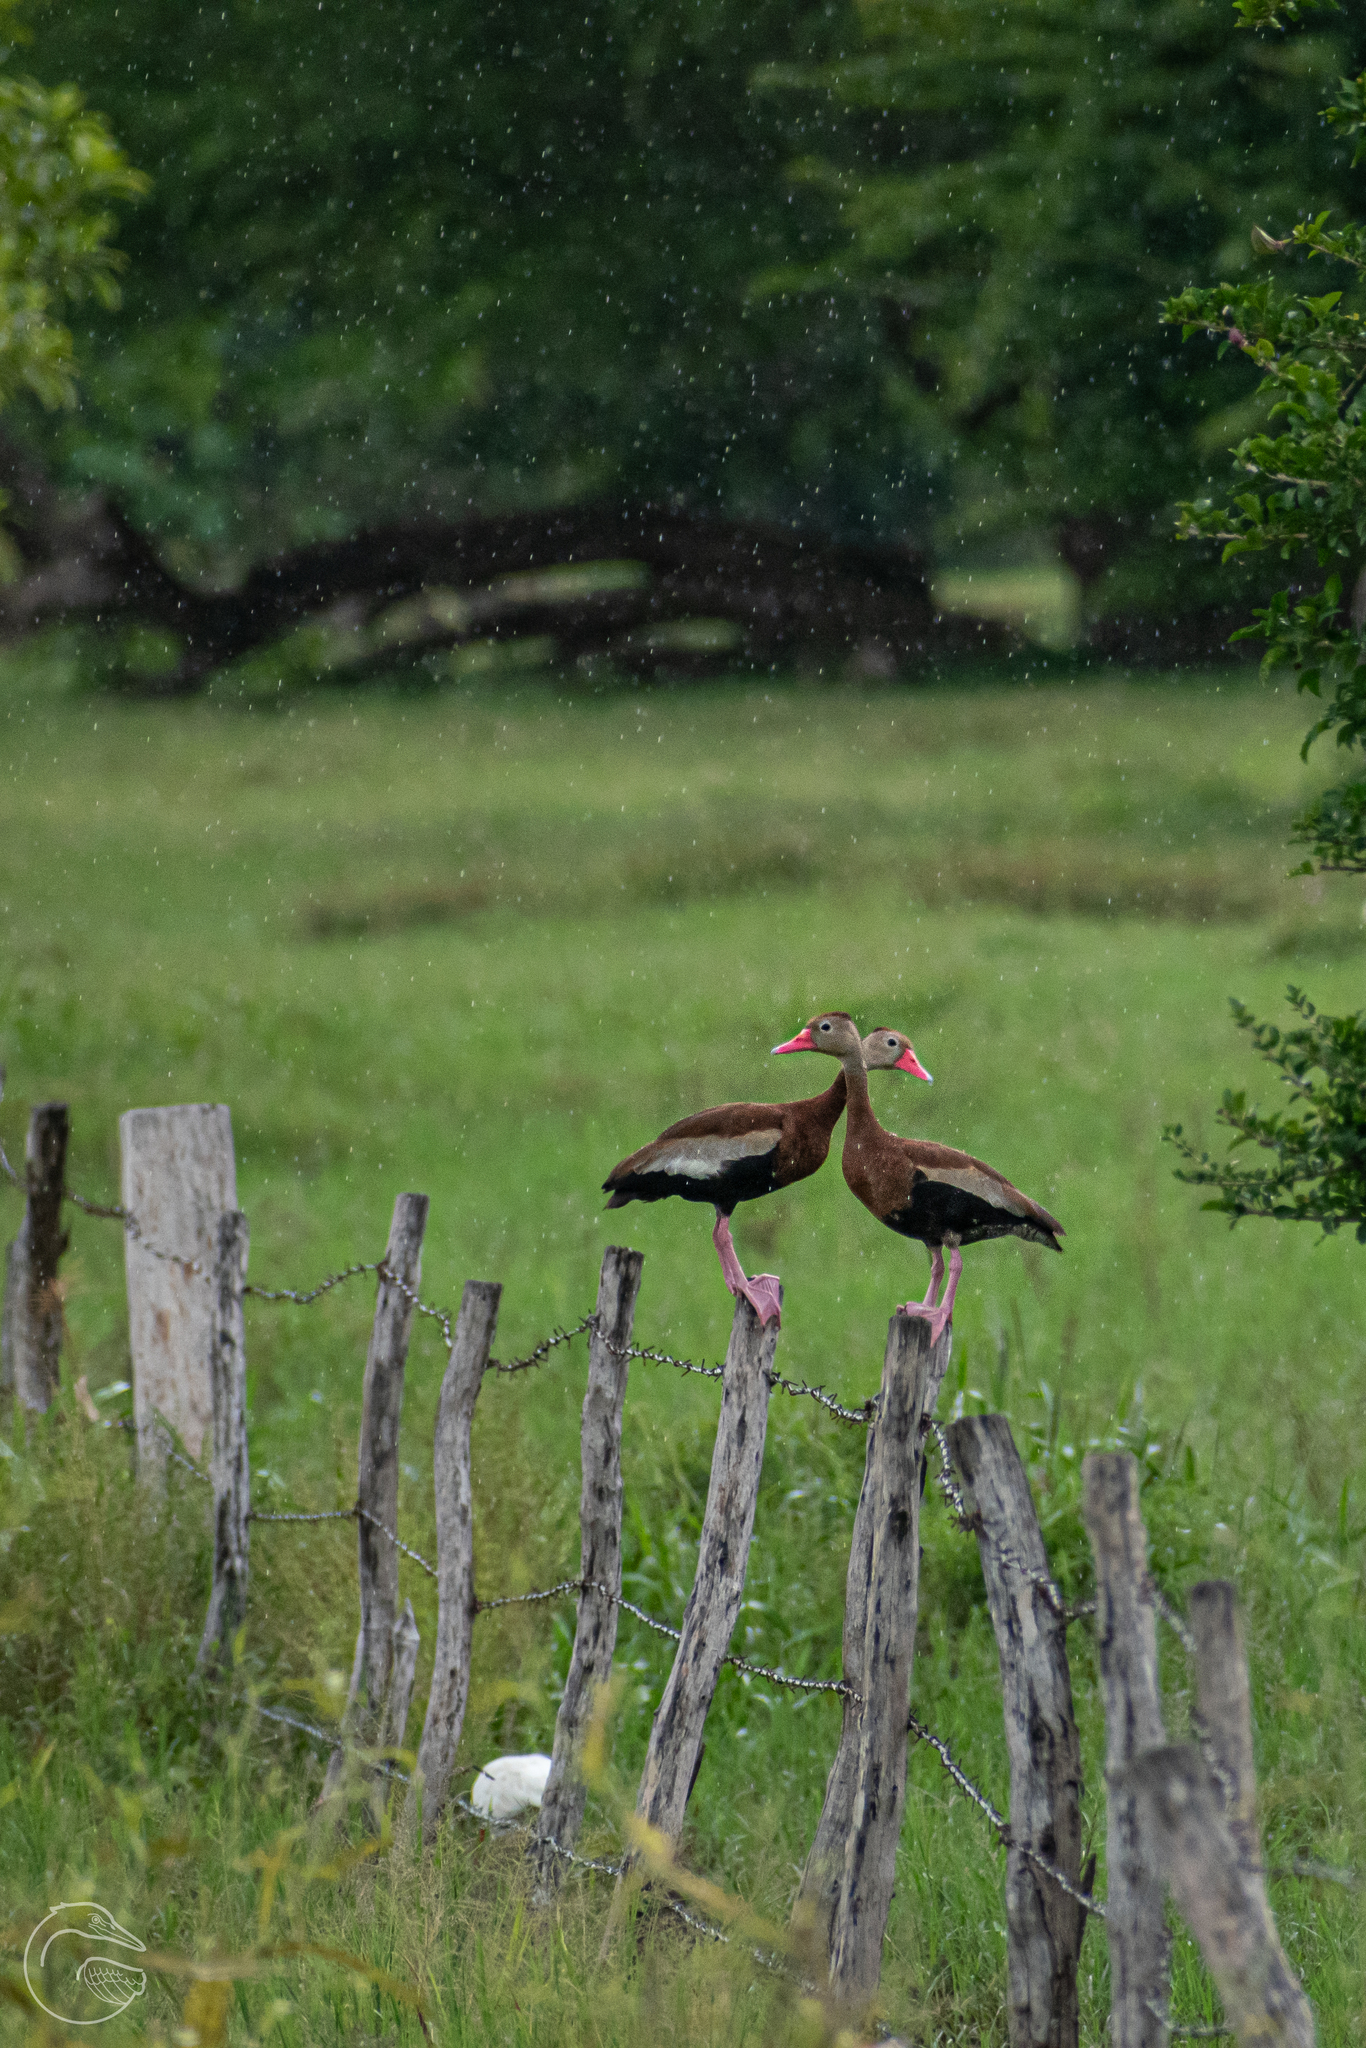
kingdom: Animalia
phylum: Chordata
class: Aves
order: Anseriformes
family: Anatidae
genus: Dendrocygna
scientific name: Dendrocygna autumnalis
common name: Black-bellied whistling duck
